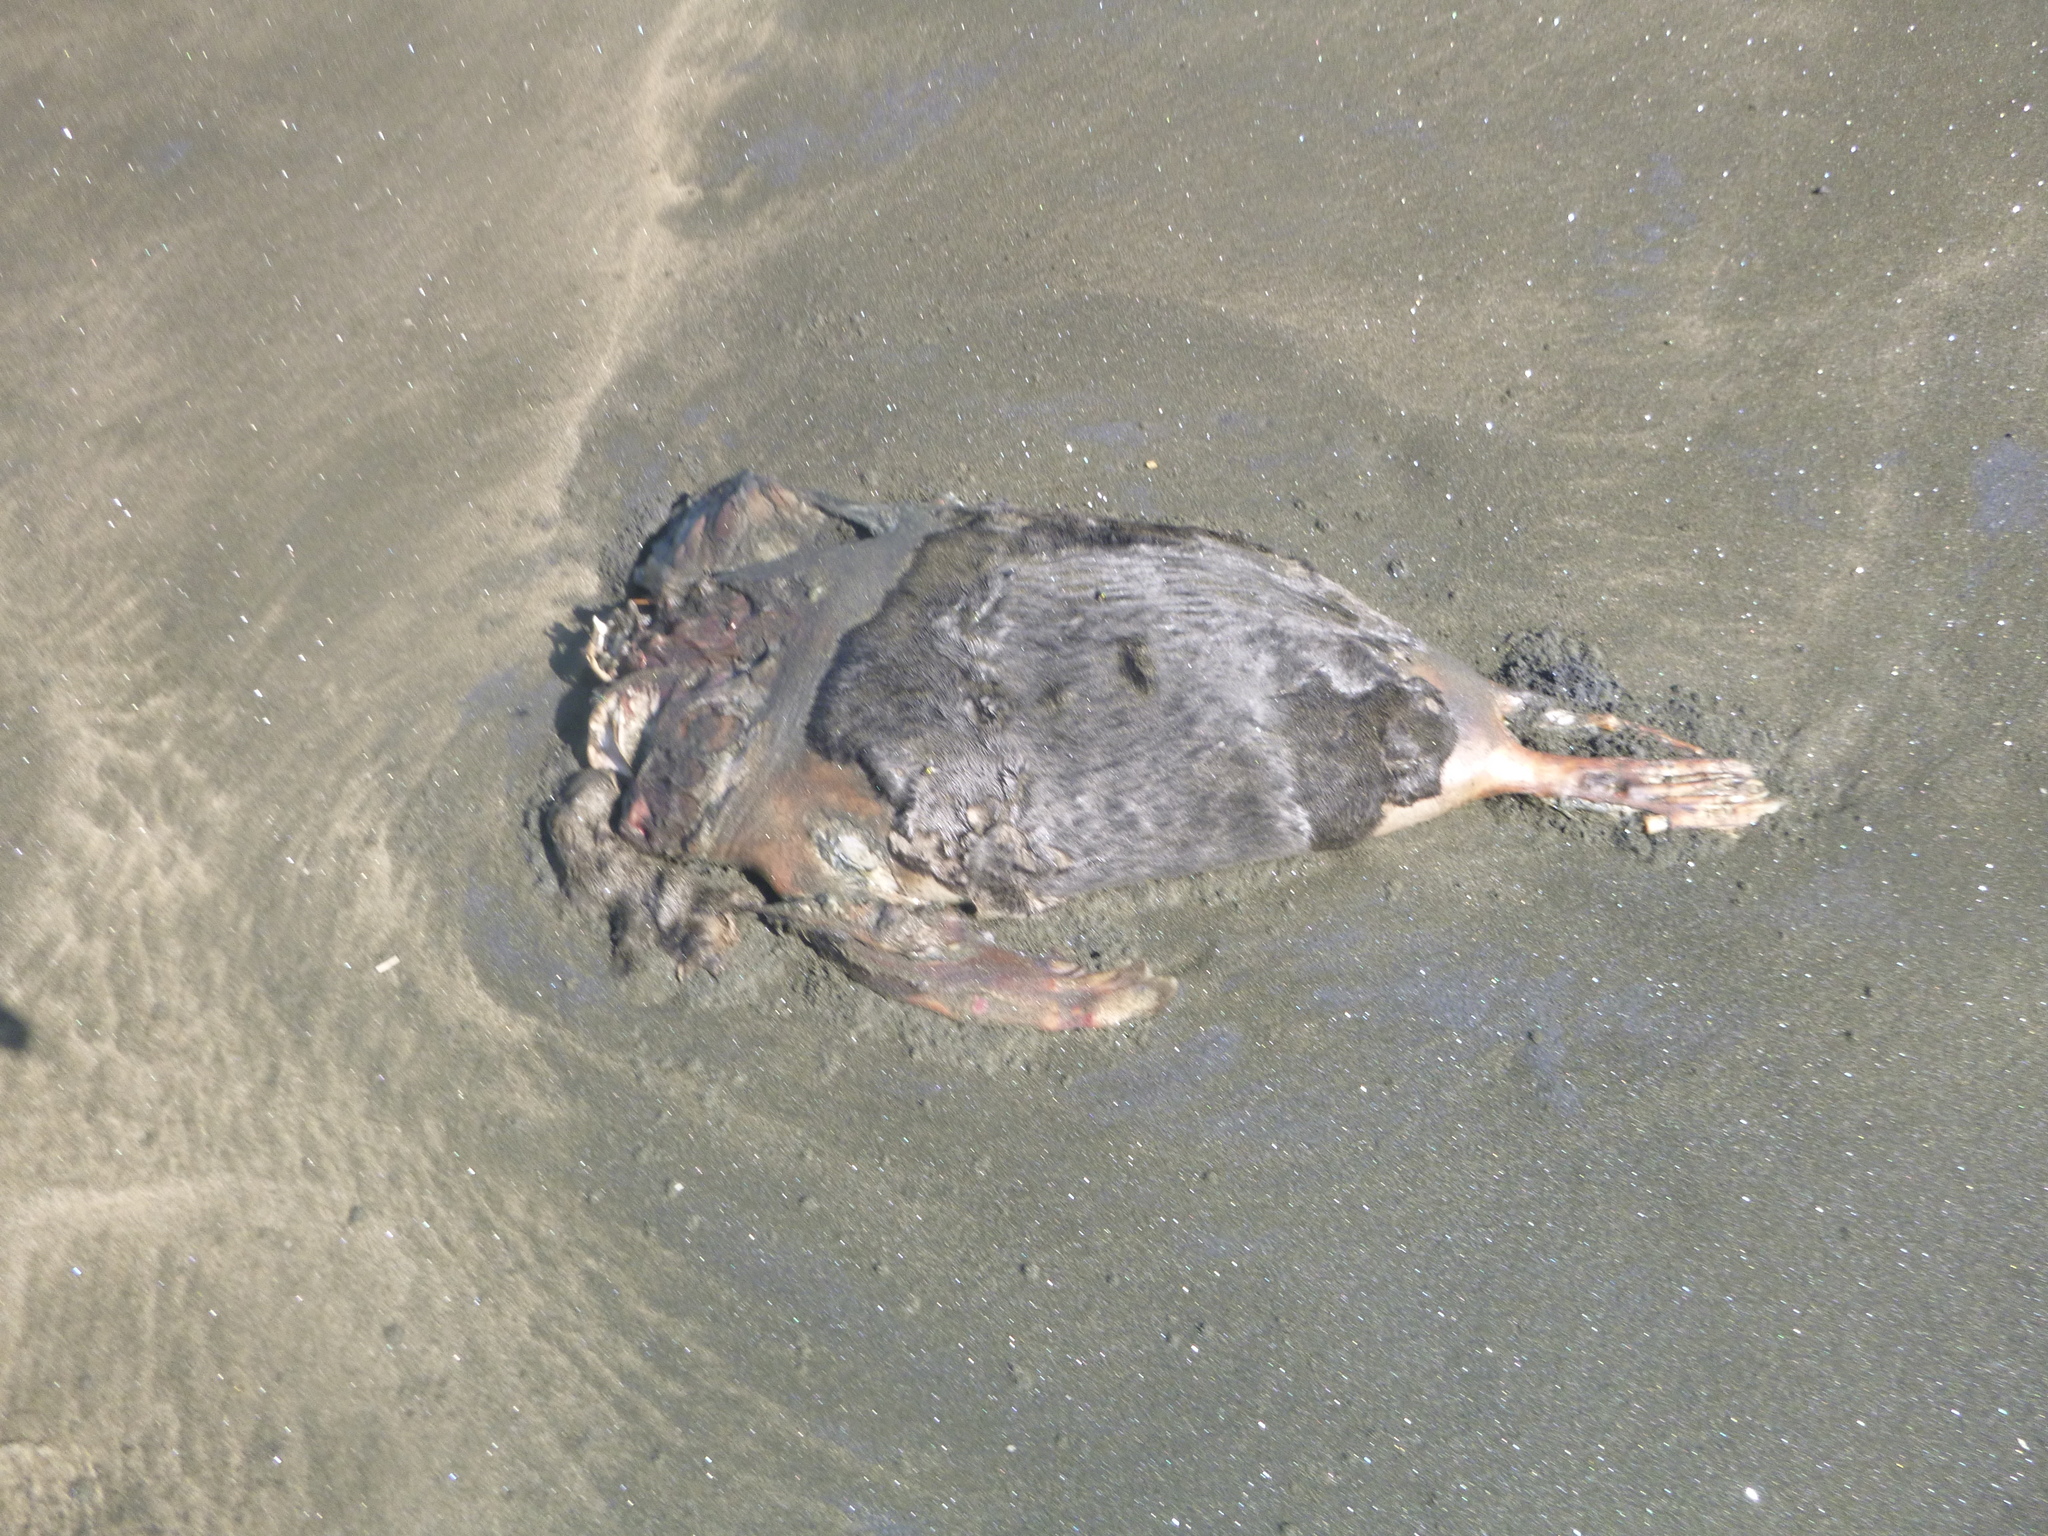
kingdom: Animalia
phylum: Chordata
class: Mammalia
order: Carnivora
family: Otariidae
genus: Arctocephalus
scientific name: Arctocephalus forsteri
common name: New zealand fur seal
